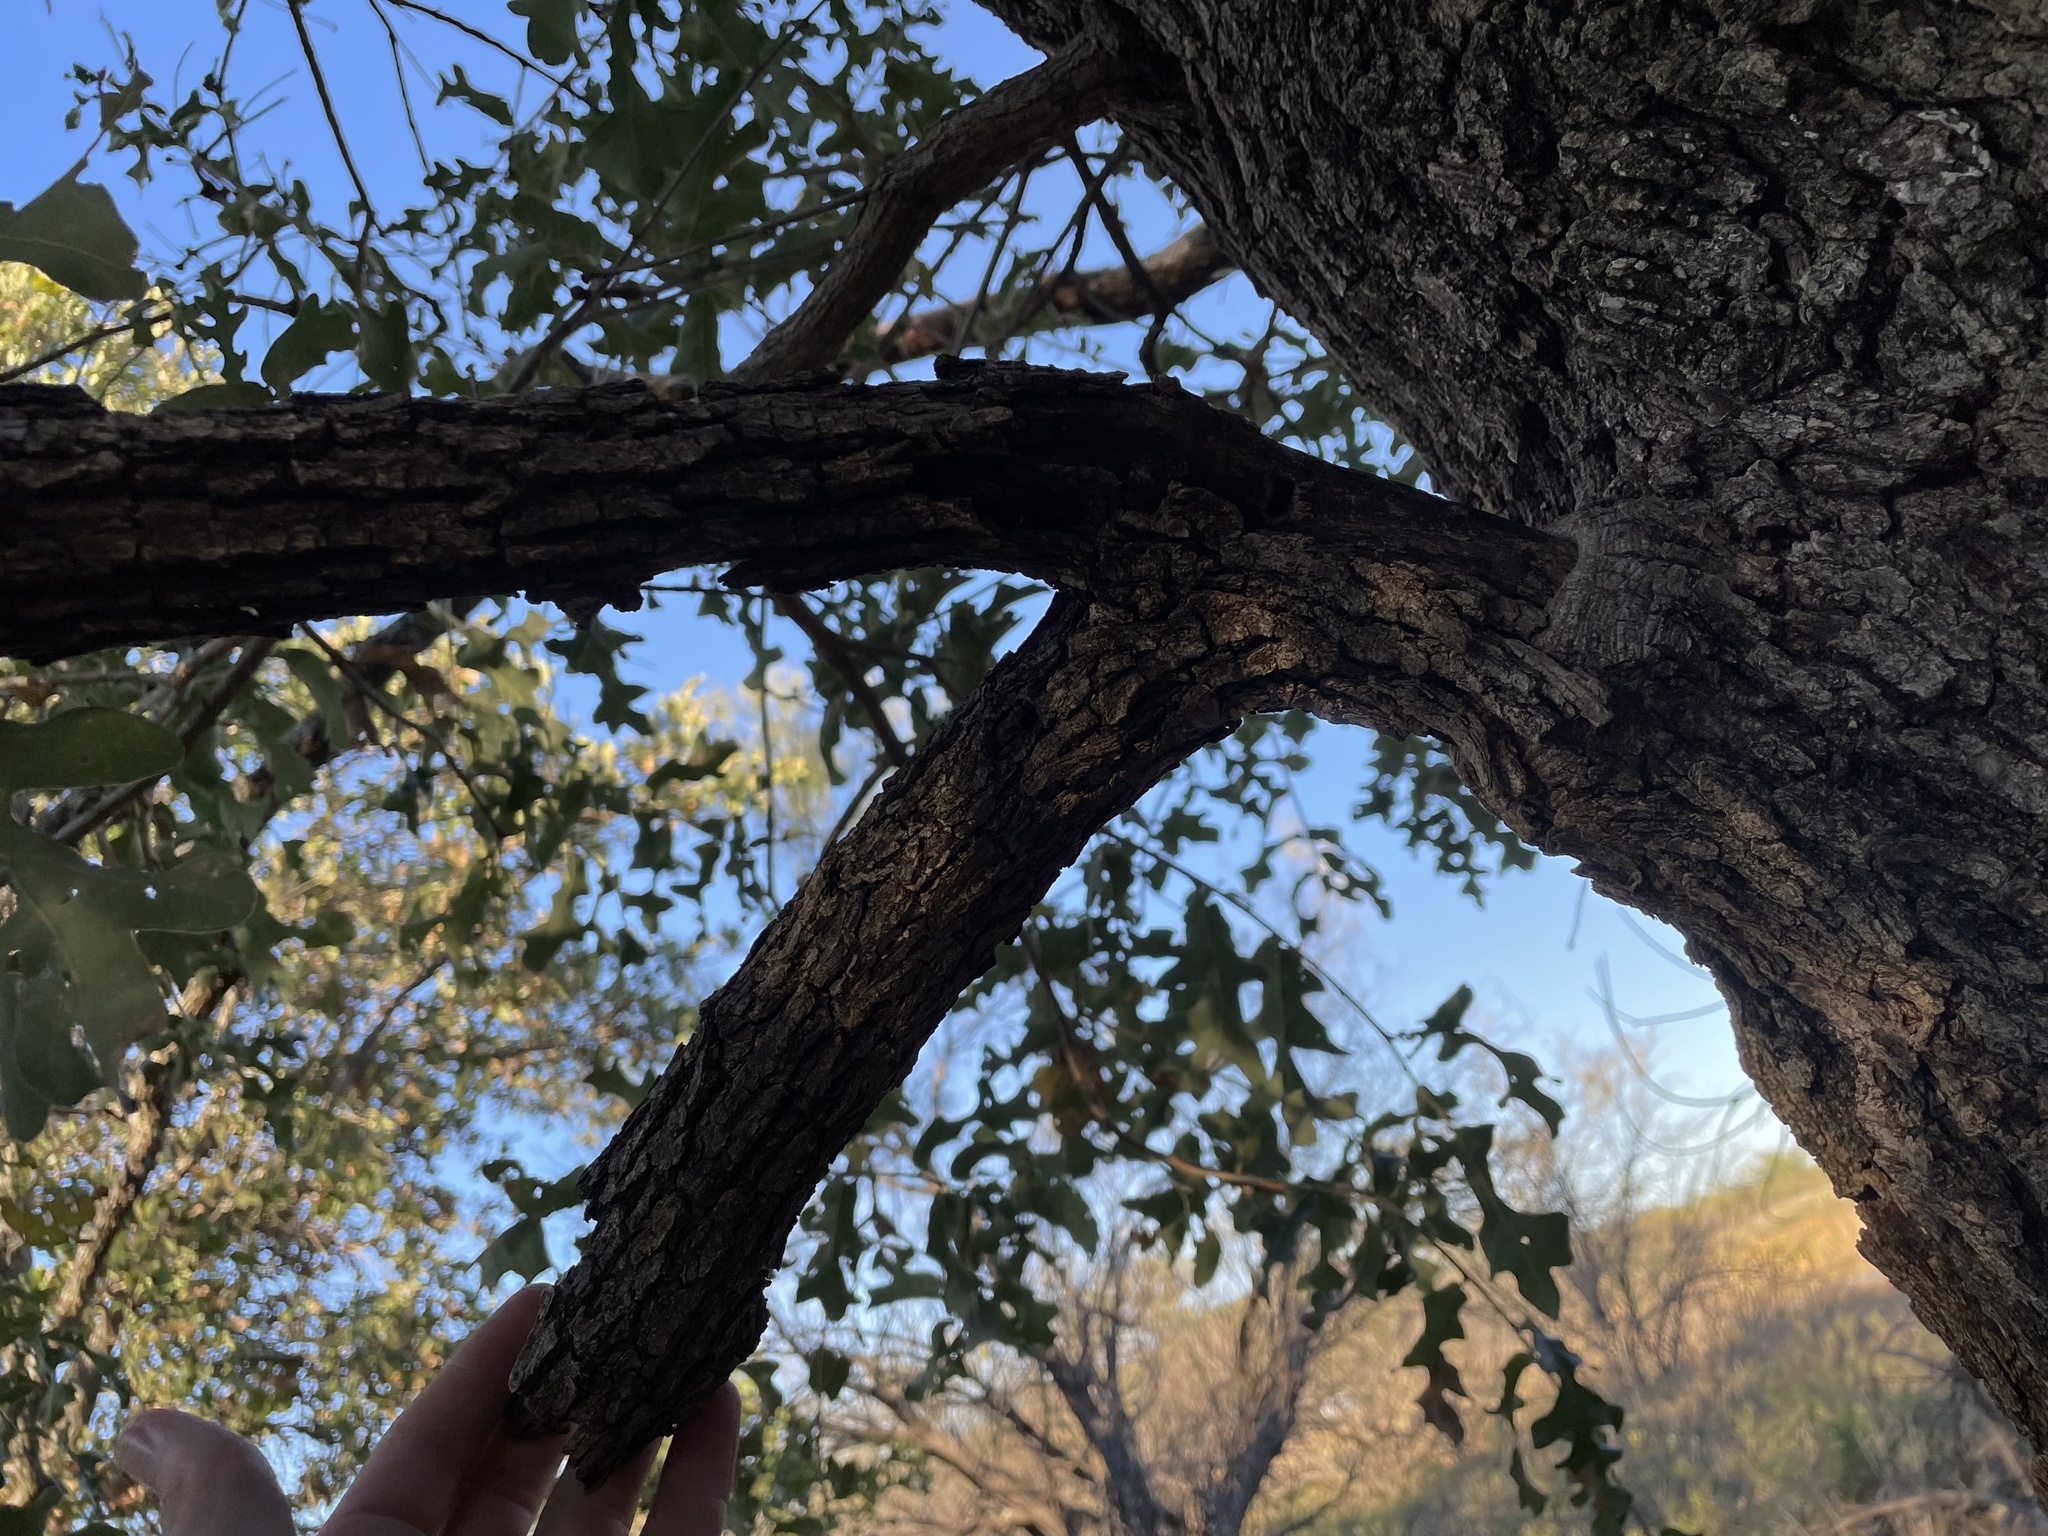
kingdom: Animalia
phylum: Arthropoda
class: Insecta
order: Hymenoptera
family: Formicidae
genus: Crematogaster
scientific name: Crematogaster laeviuscula
